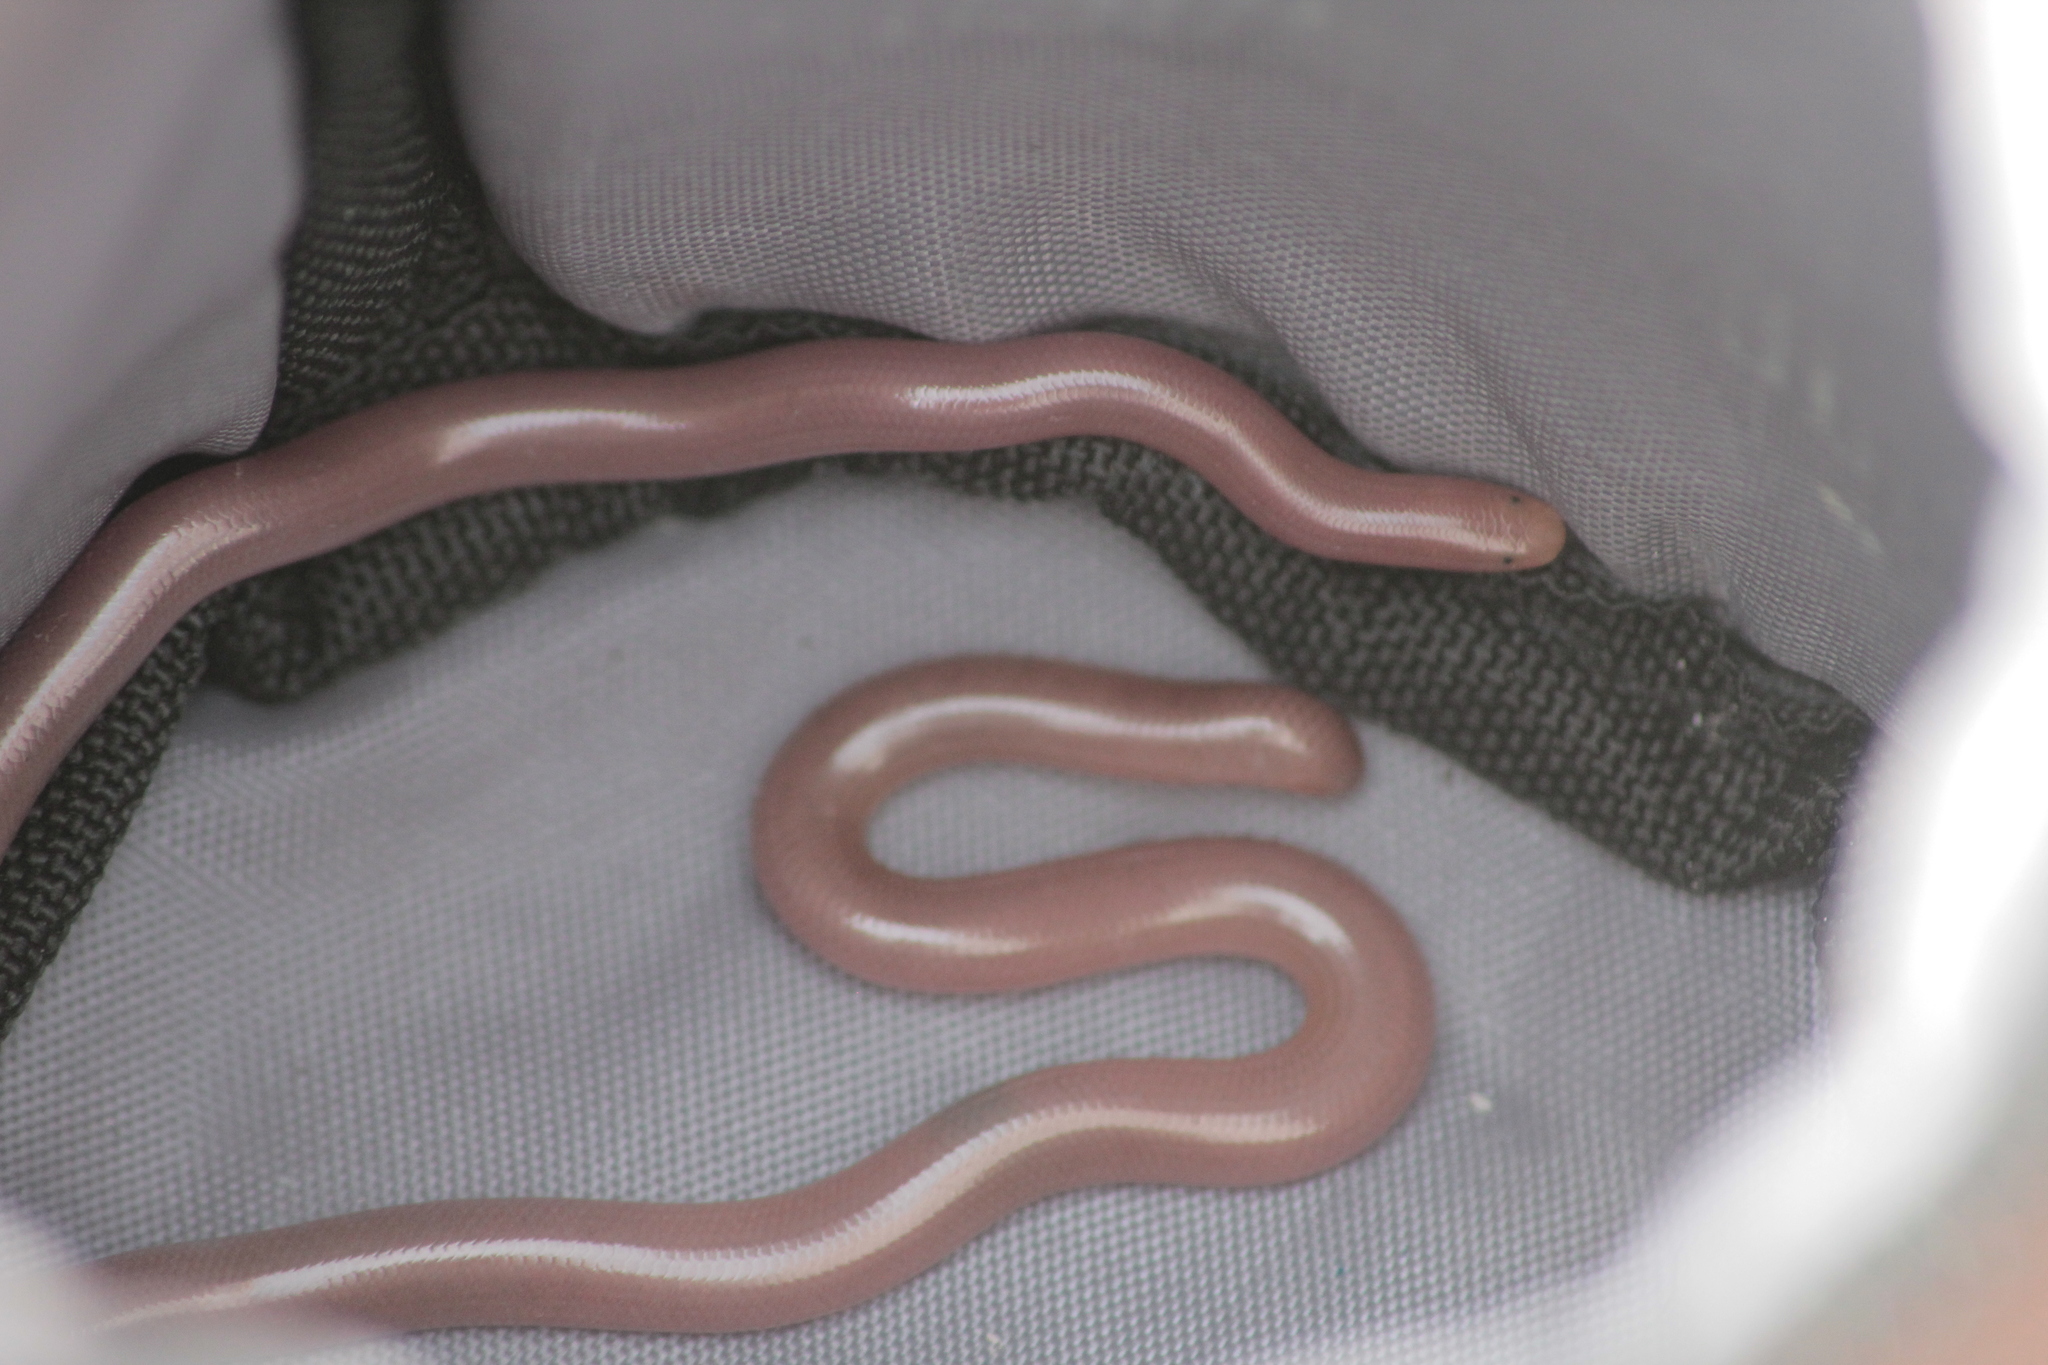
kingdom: Animalia
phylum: Chordata
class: Squamata
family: Typhlopidae
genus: Xerotyphlops
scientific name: Xerotyphlops vermicularis
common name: Eurasian blind snake
